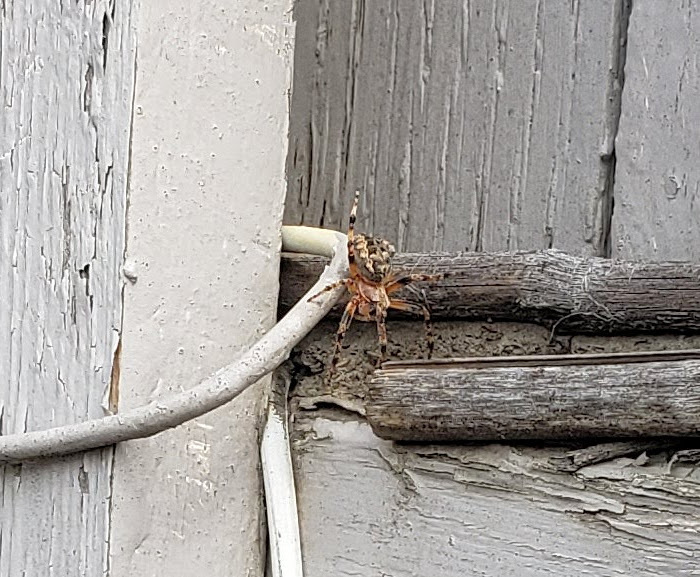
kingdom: Animalia
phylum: Arthropoda
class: Arachnida
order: Araneae
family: Araneidae
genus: Larinioides
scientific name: Larinioides patagiatus
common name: Ornamental orbweaver
